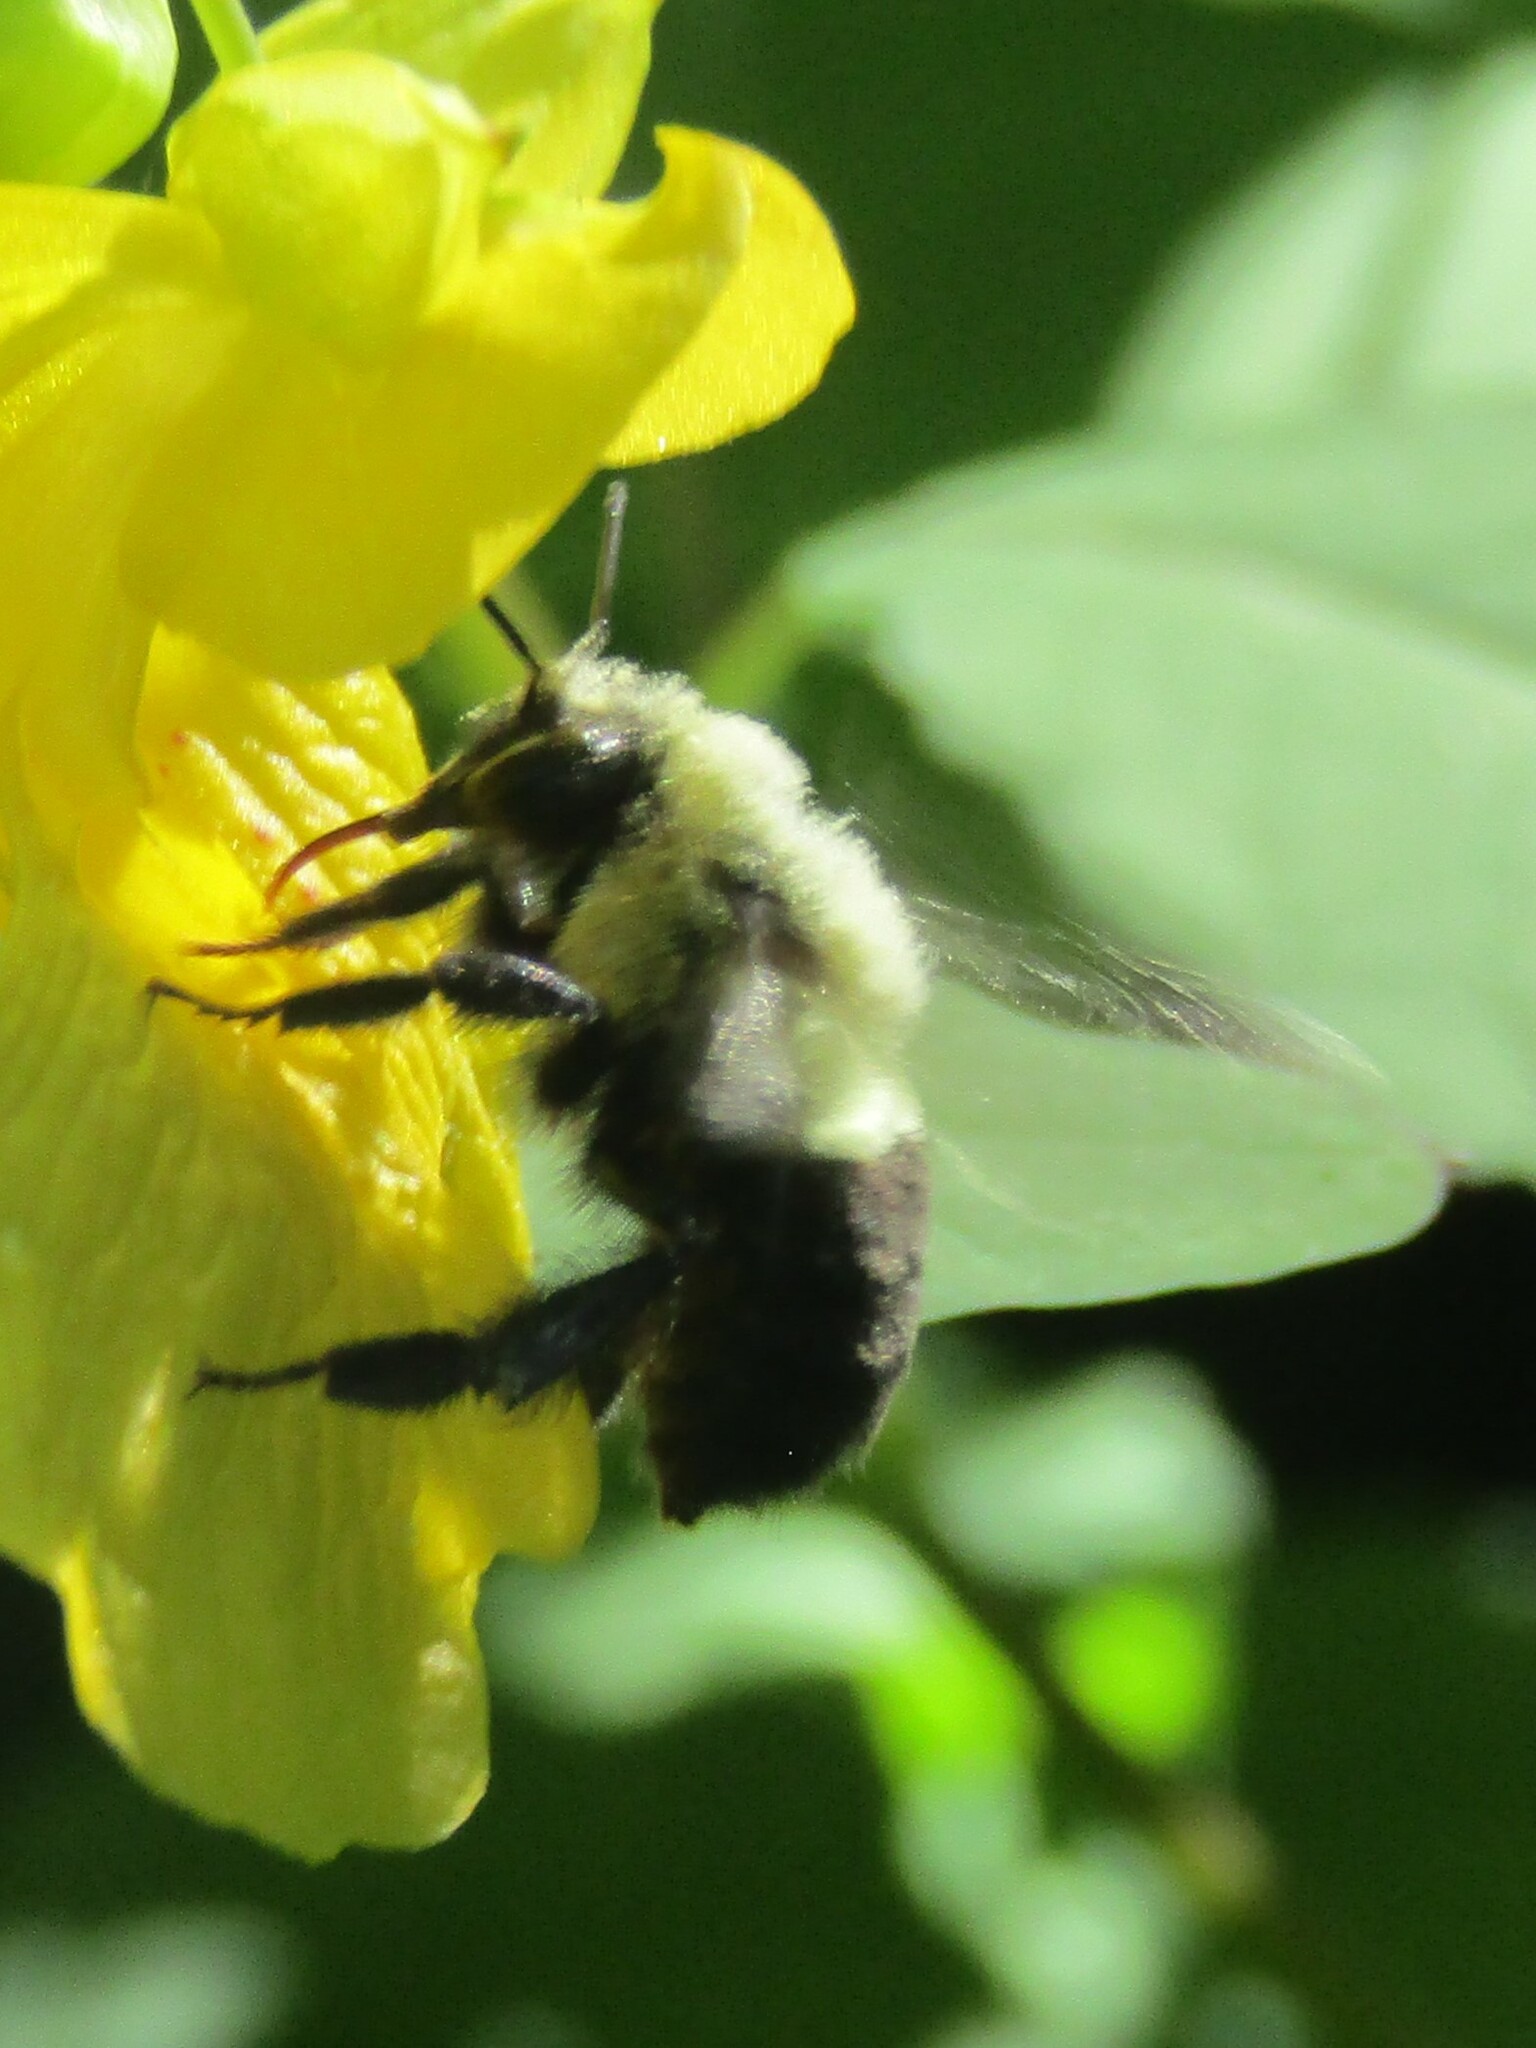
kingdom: Animalia
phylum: Arthropoda
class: Insecta
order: Hymenoptera
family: Apidae
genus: Bombus
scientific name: Bombus impatiens
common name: Common eastern bumble bee
